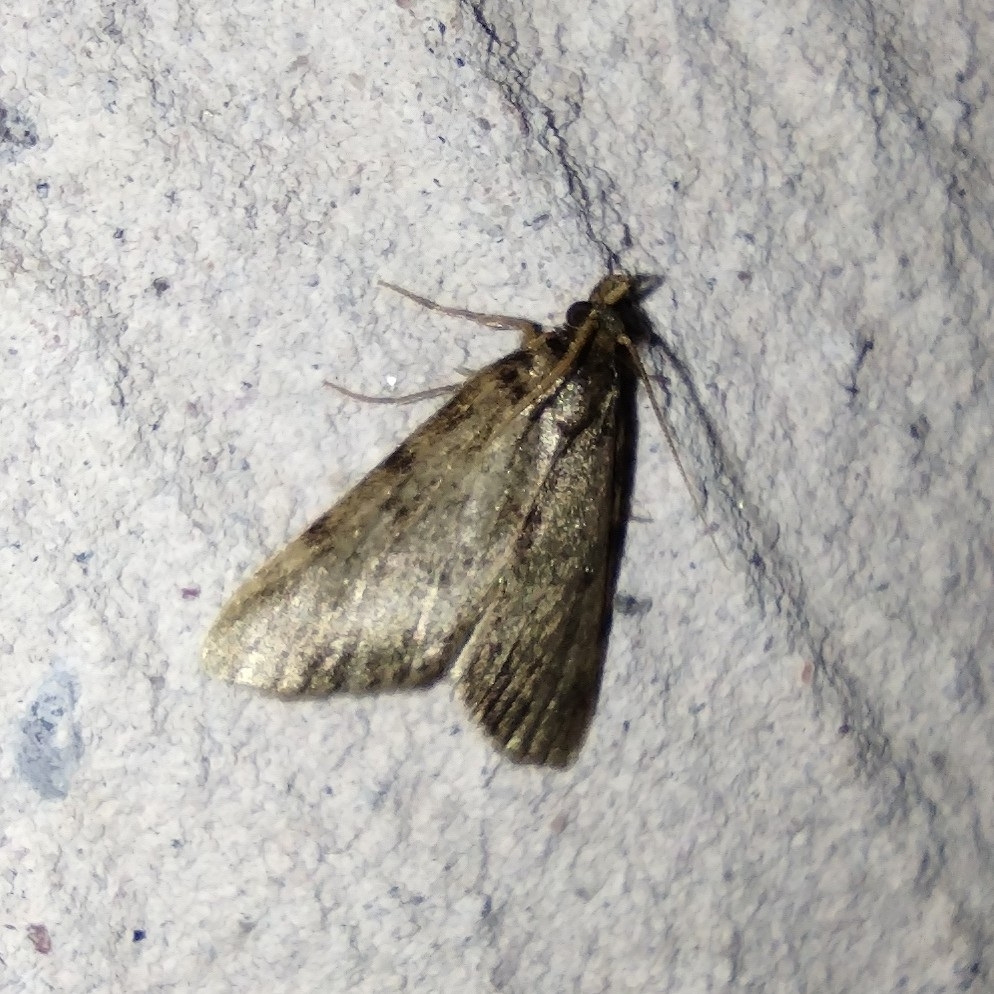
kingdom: Animalia
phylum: Arthropoda
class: Insecta
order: Lepidoptera
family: Pyralidae
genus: Aglossa
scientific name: Aglossa pinguinalis
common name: Large tabby
